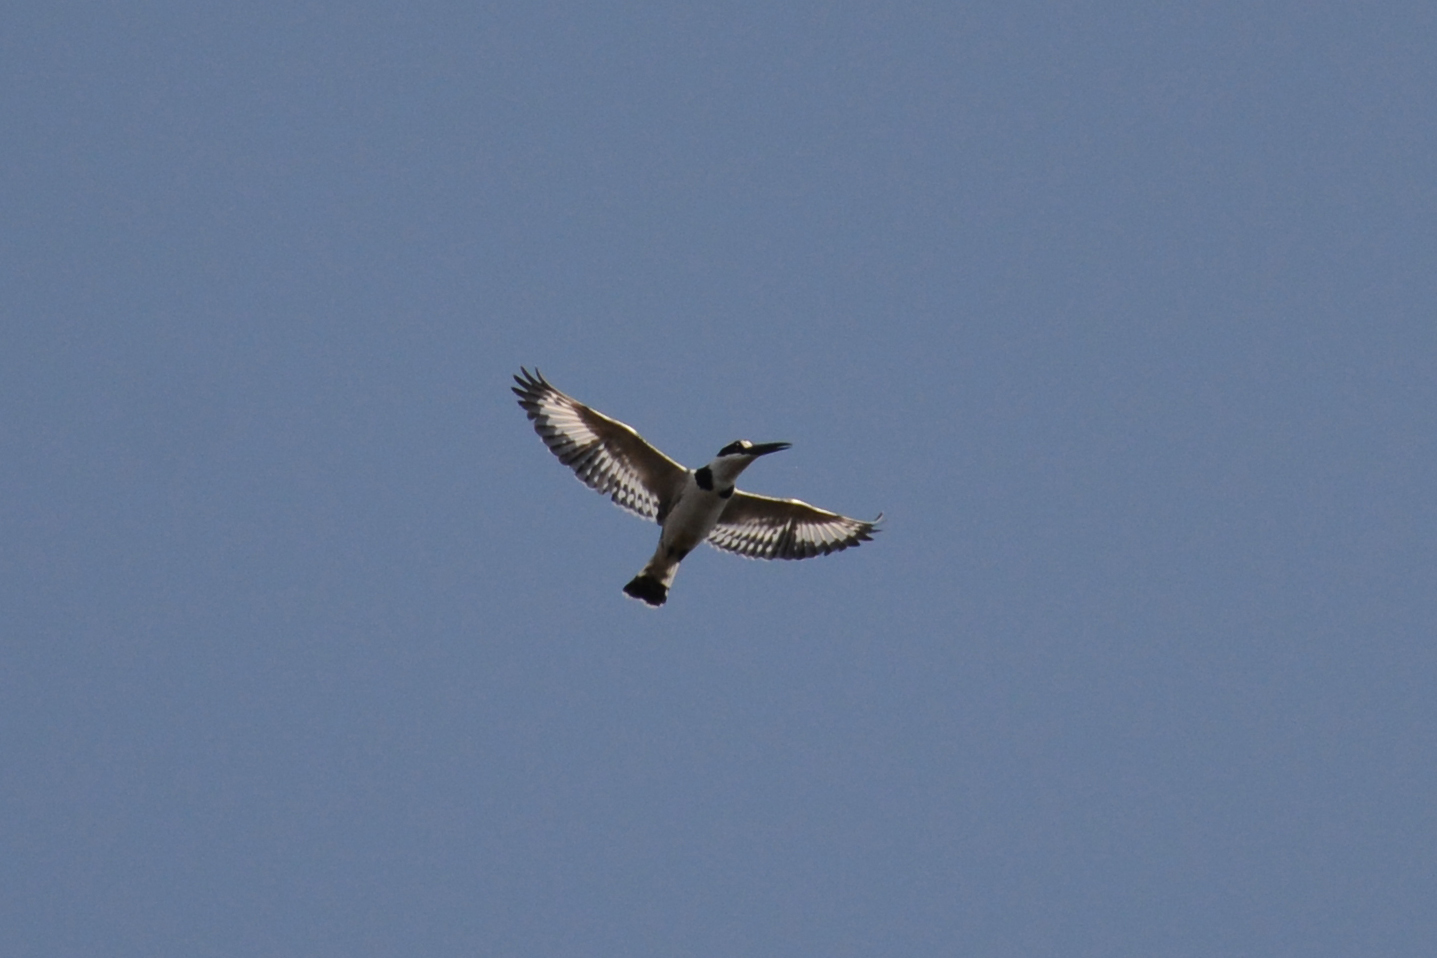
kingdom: Animalia
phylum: Chordata
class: Aves
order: Coraciiformes
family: Alcedinidae
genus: Ceryle
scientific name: Ceryle rudis
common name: Pied kingfisher
